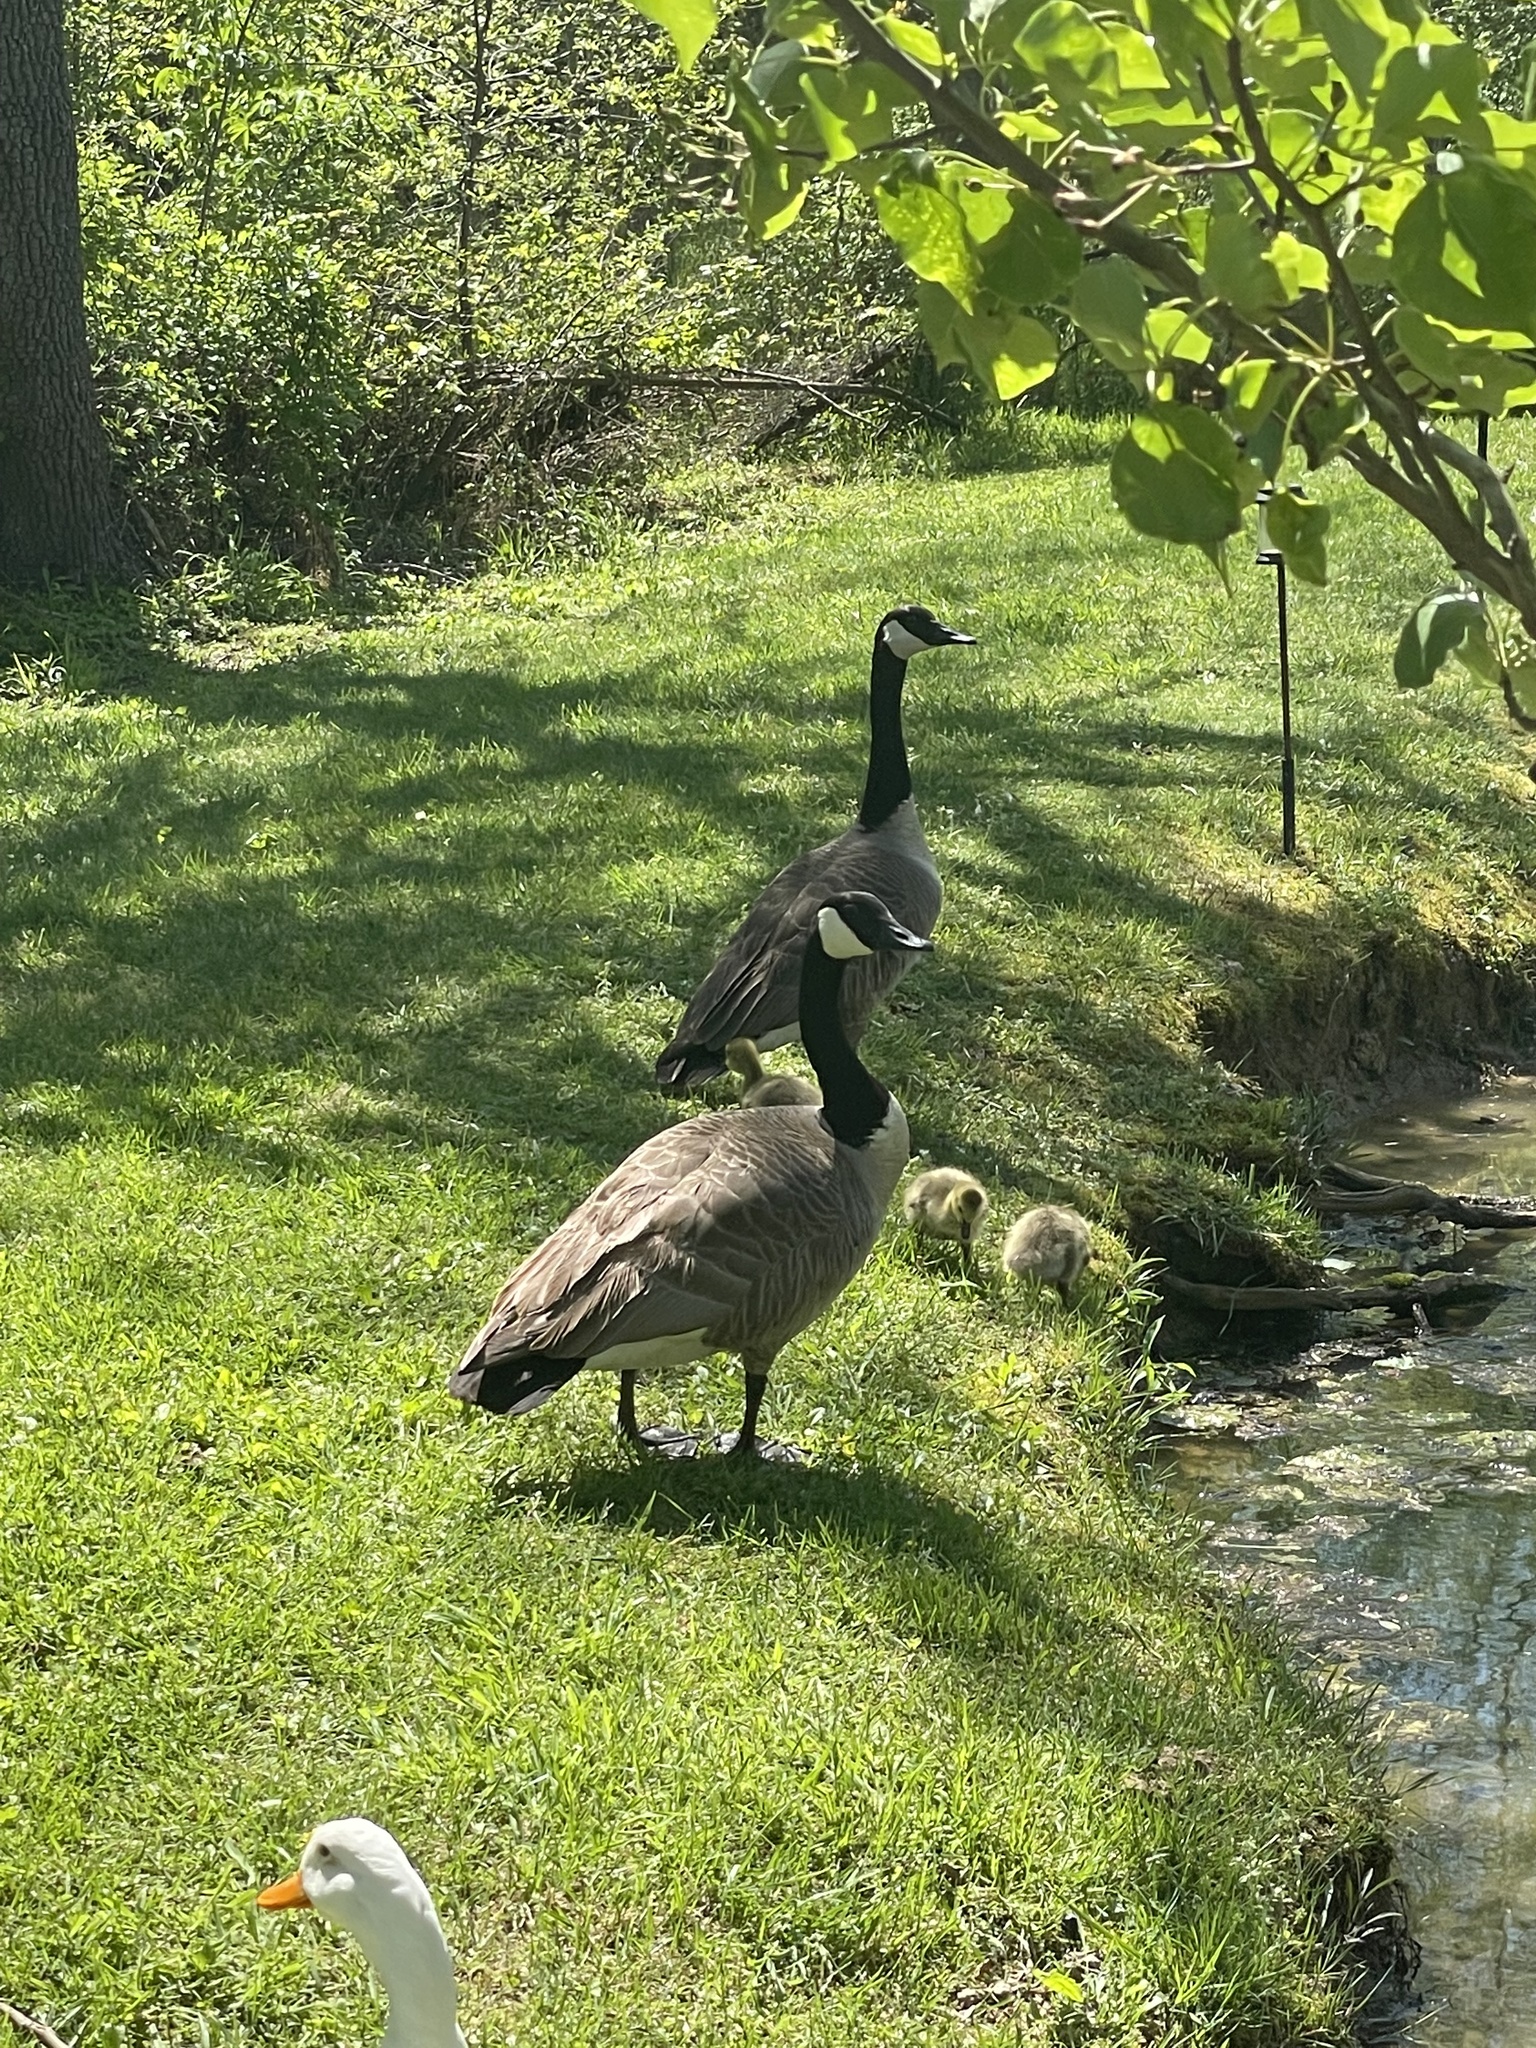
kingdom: Animalia
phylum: Chordata
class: Aves
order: Anseriformes
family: Anatidae
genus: Branta
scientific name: Branta canadensis
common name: Canada goose
